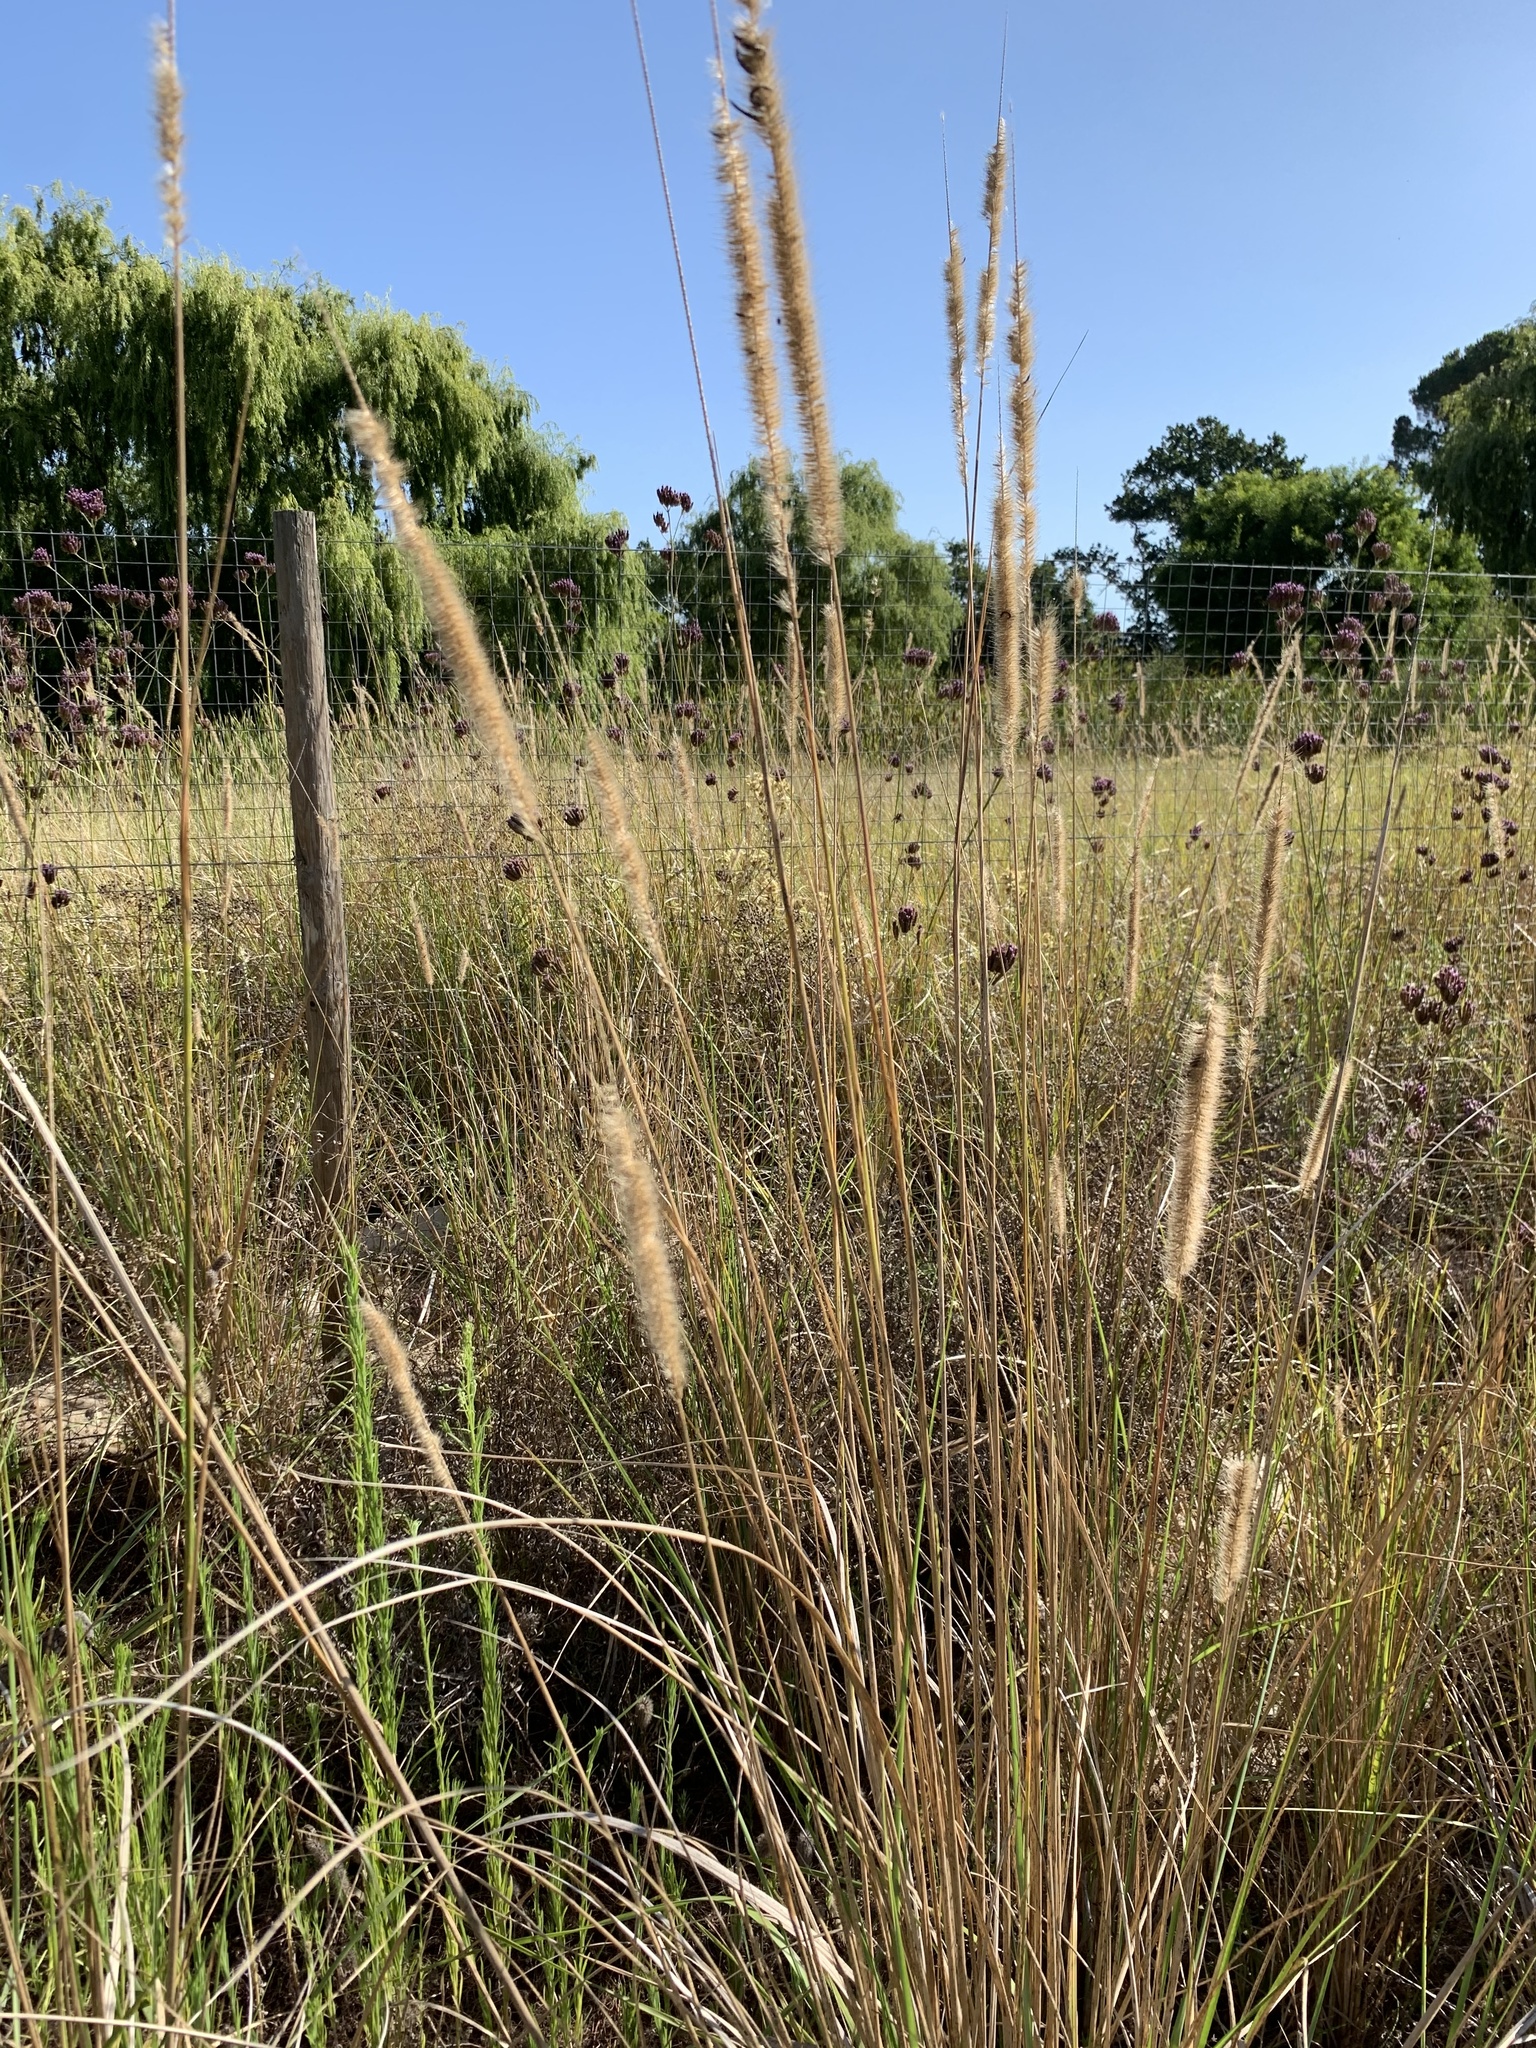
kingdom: Plantae
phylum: Tracheophyta
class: Liliopsida
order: Poales
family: Poaceae
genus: Cenchrus
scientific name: Cenchrus caudatus
